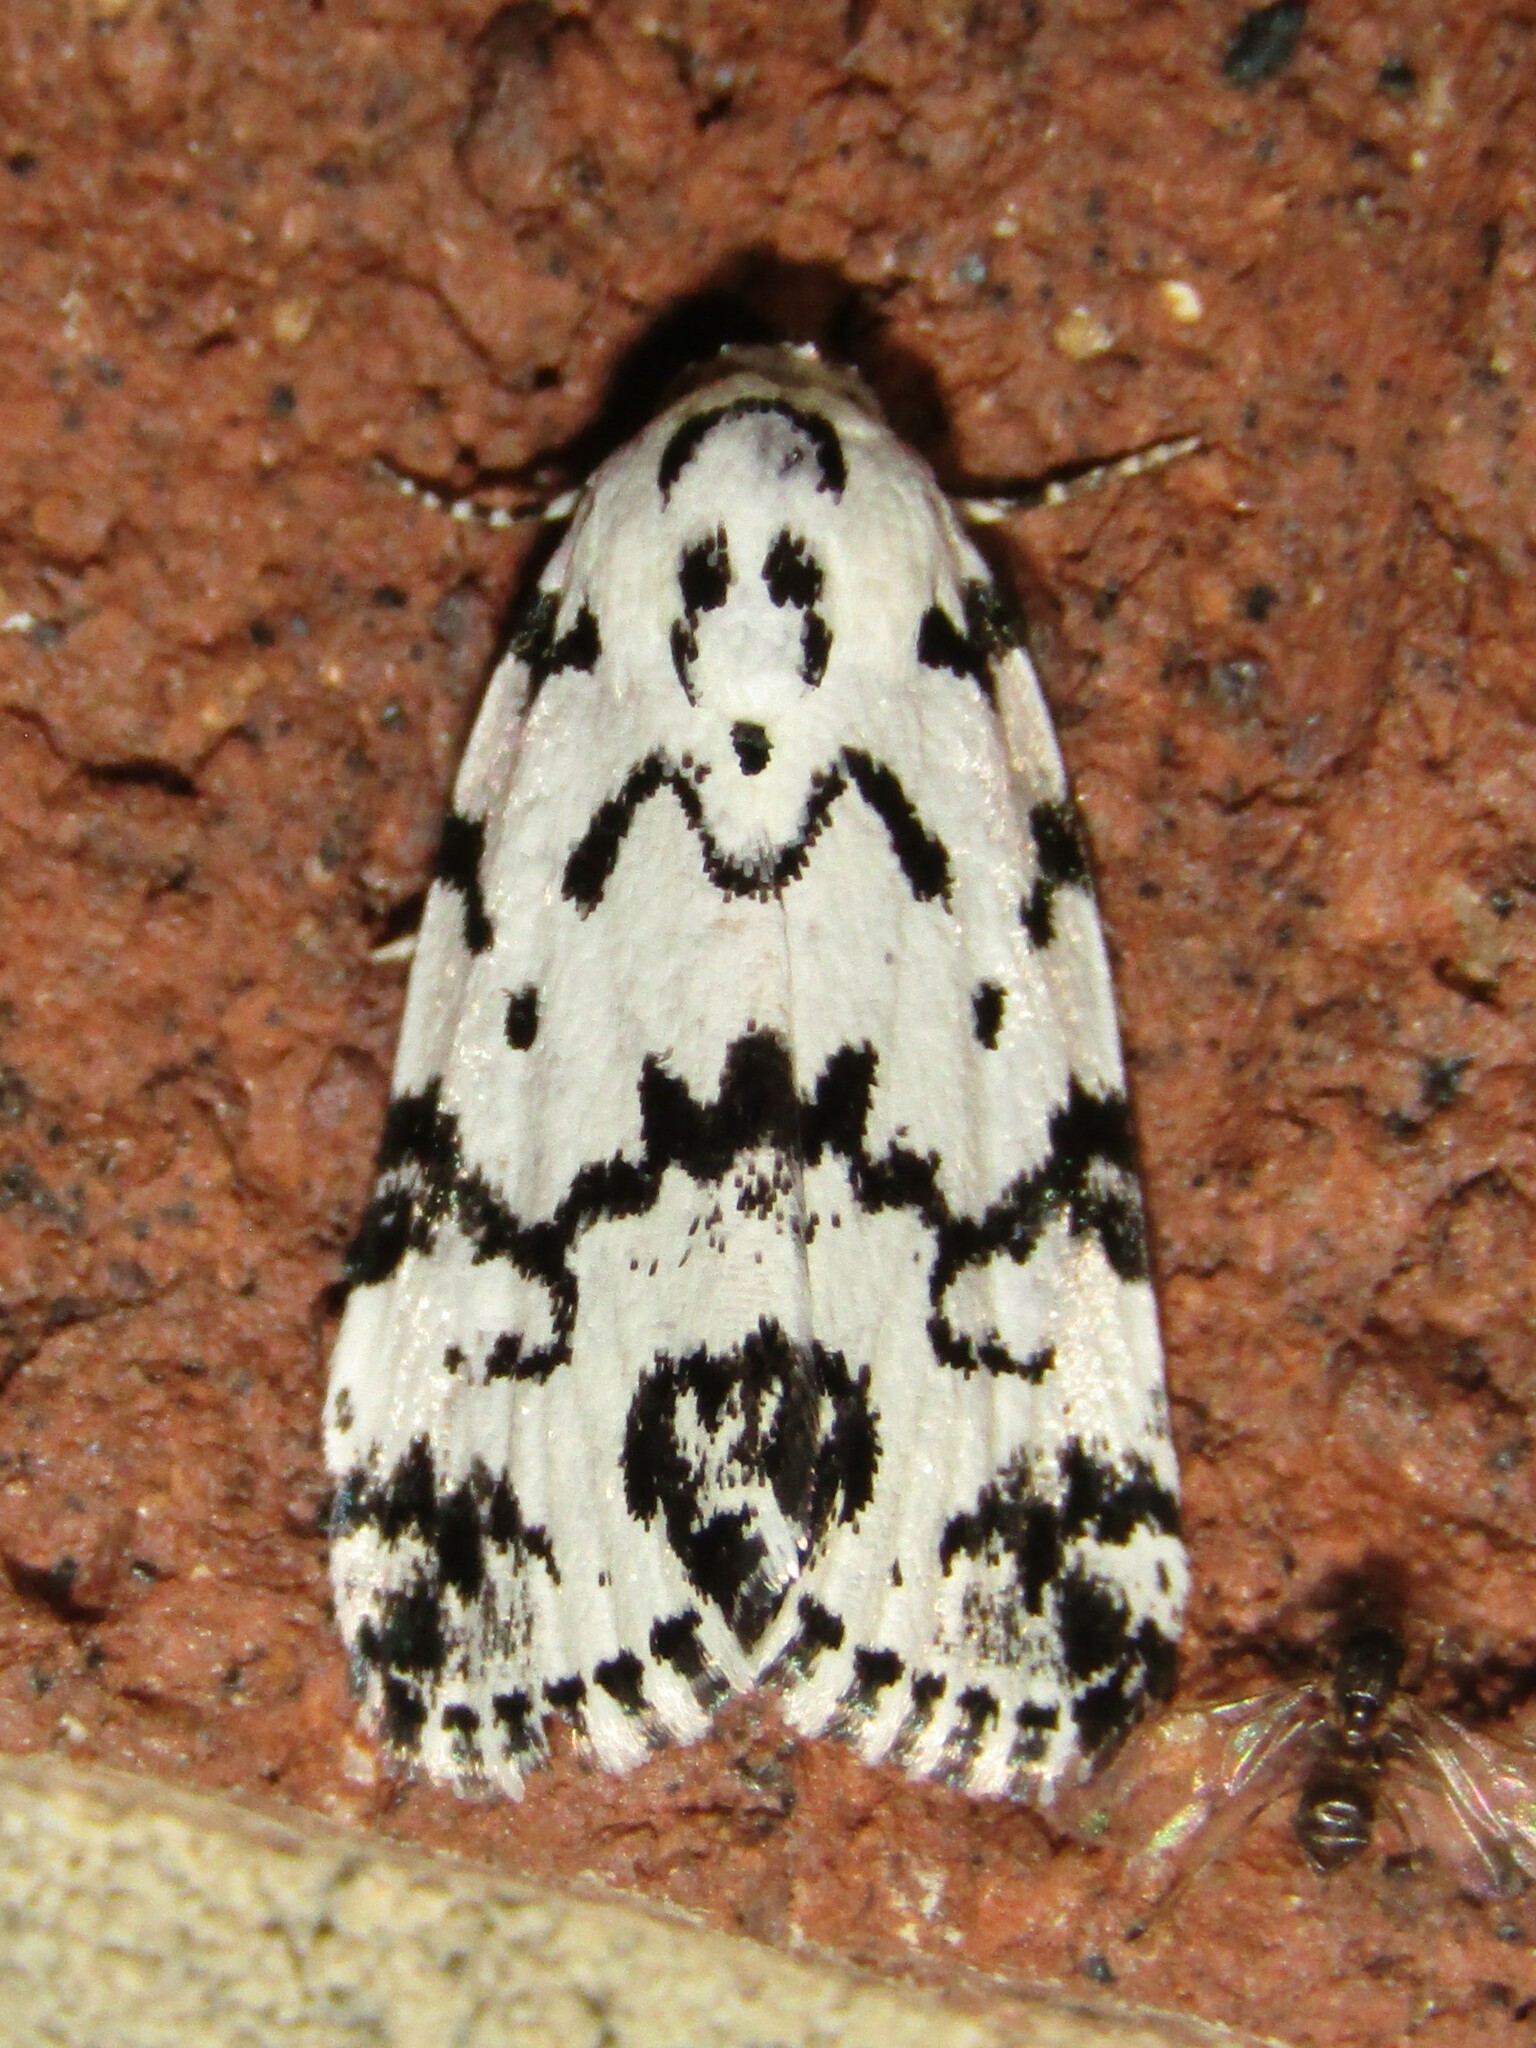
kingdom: Animalia
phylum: Arthropoda
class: Insecta
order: Lepidoptera
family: Noctuidae
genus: Polygrammate
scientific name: Polygrammate hebraeicum
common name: Hebrew moth
